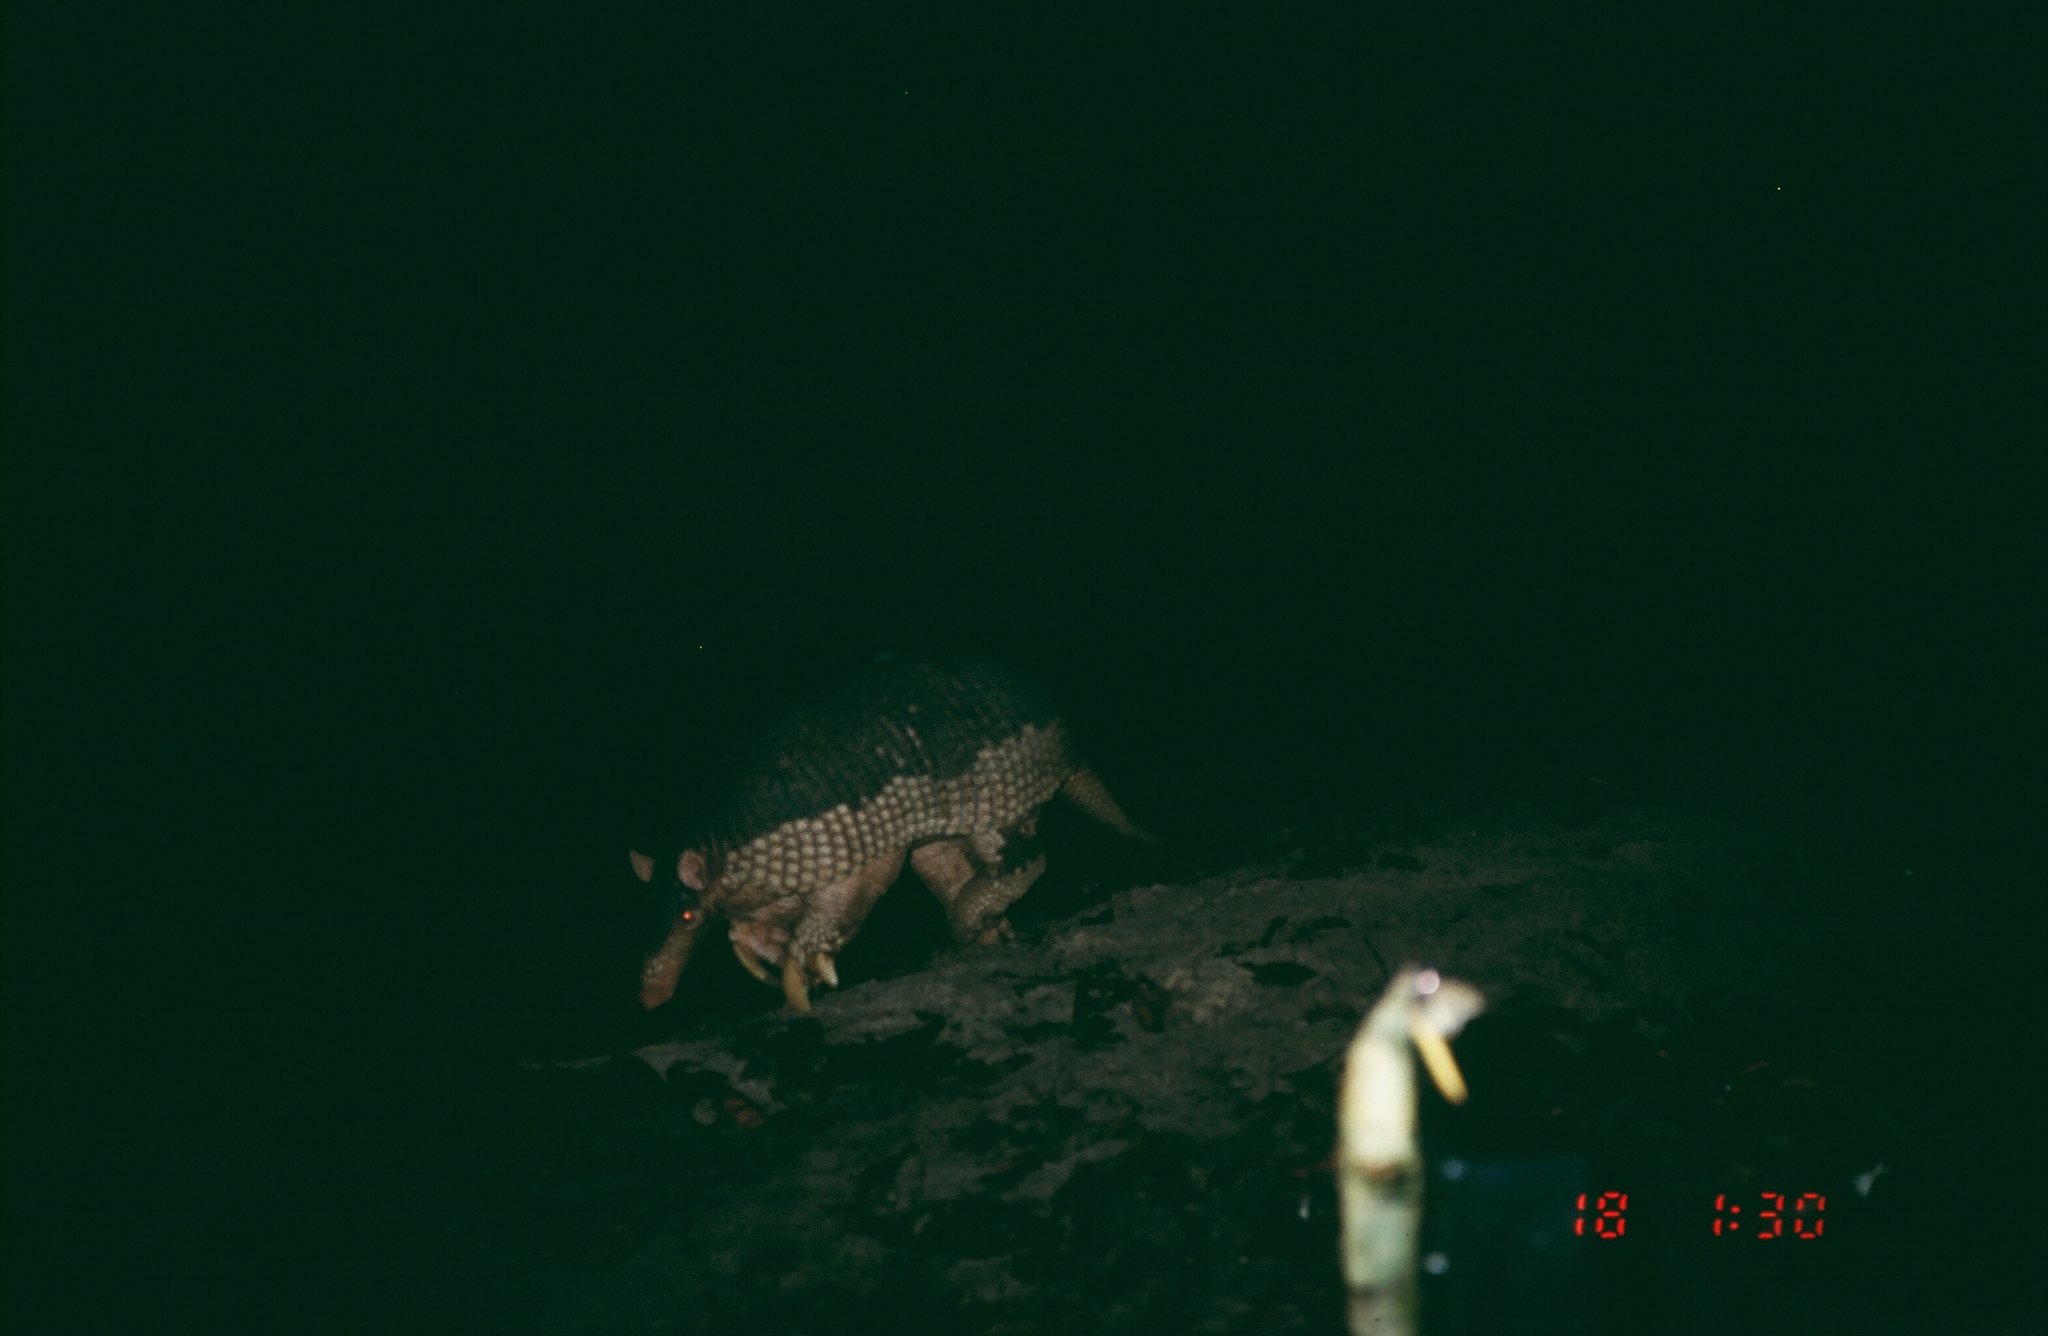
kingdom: Animalia
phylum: Chordata
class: Mammalia
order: Cingulata
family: Dasypodidae
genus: Priodontes
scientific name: Priodontes maximus
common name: Giant armadillo
